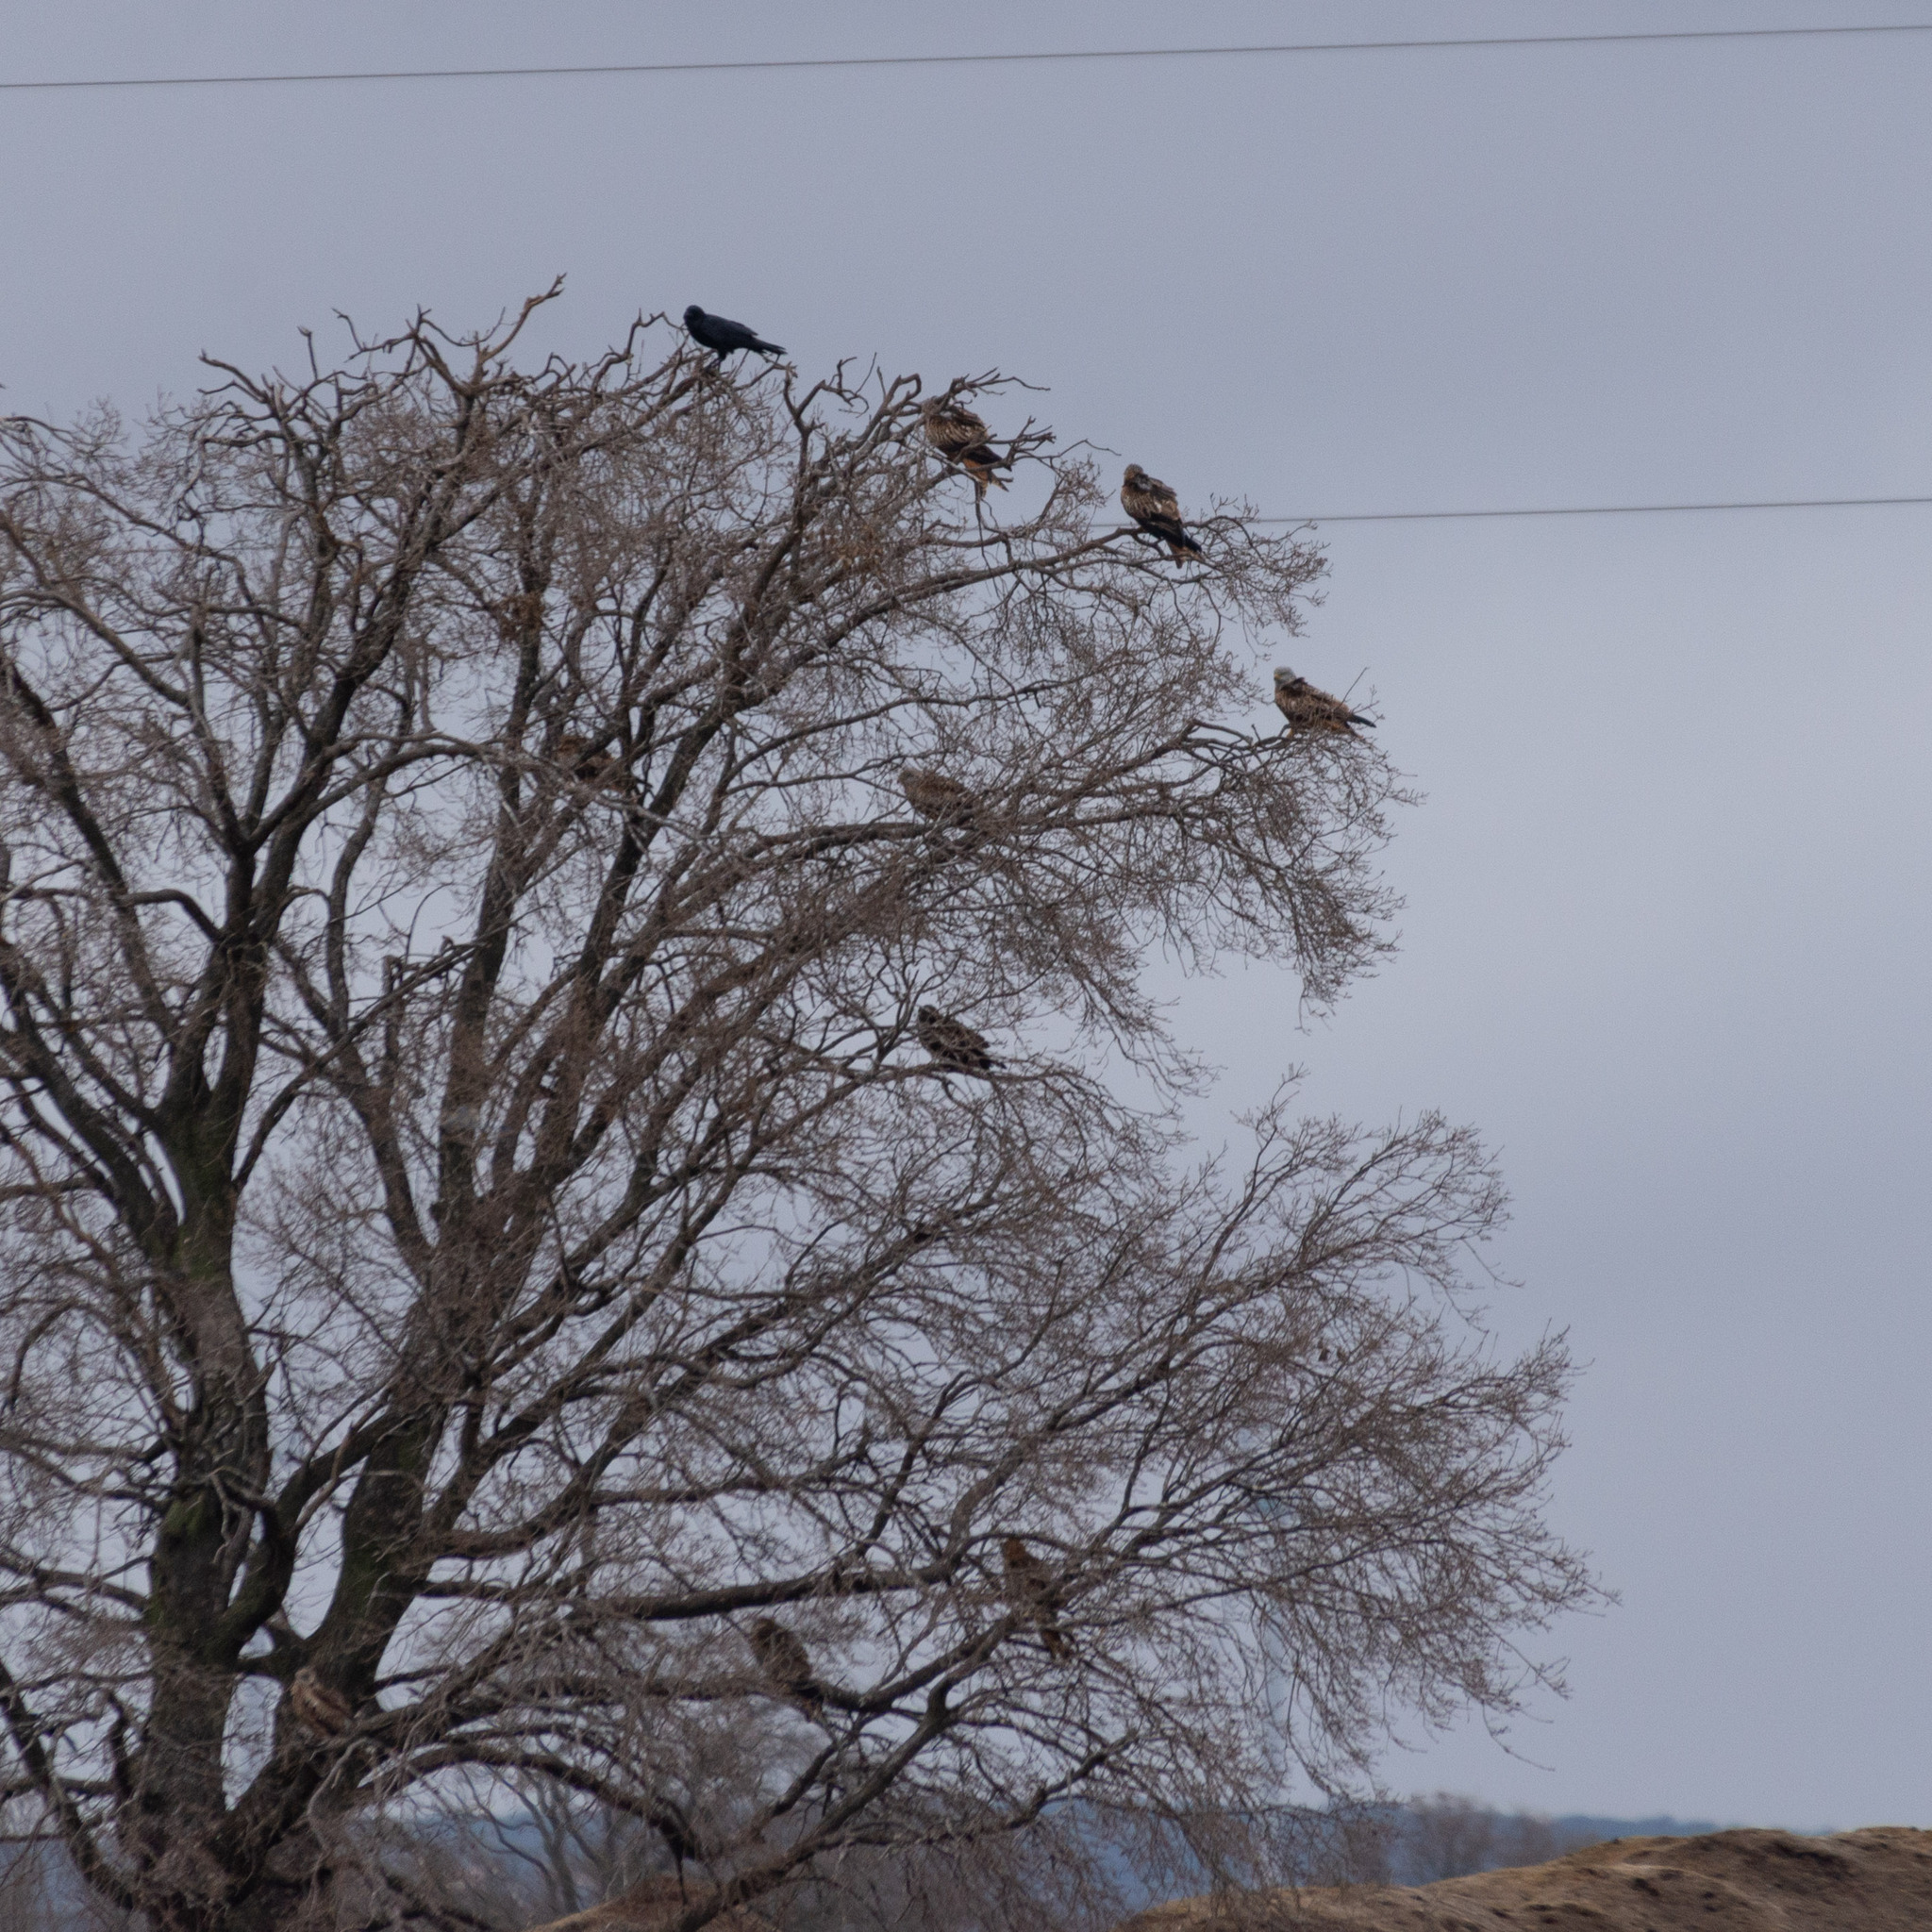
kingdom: Animalia
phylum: Chordata
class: Aves
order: Accipitriformes
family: Accipitridae
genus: Milvus
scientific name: Milvus milvus
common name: Red kite
